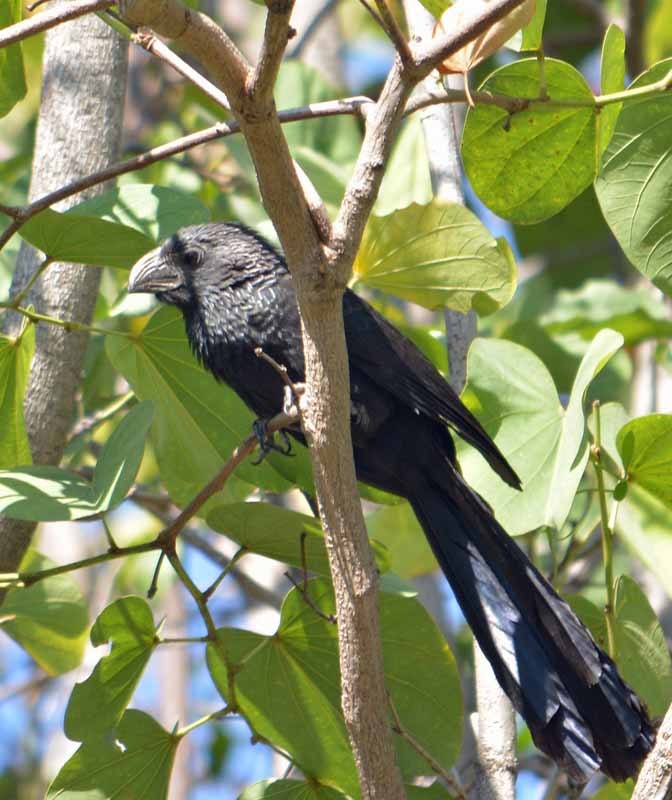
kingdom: Animalia
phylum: Chordata
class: Aves
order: Cuculiformes
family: Cuculidae
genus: Crotophaga
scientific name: Crotophaga sulcirostris
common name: Groove-billed ani
